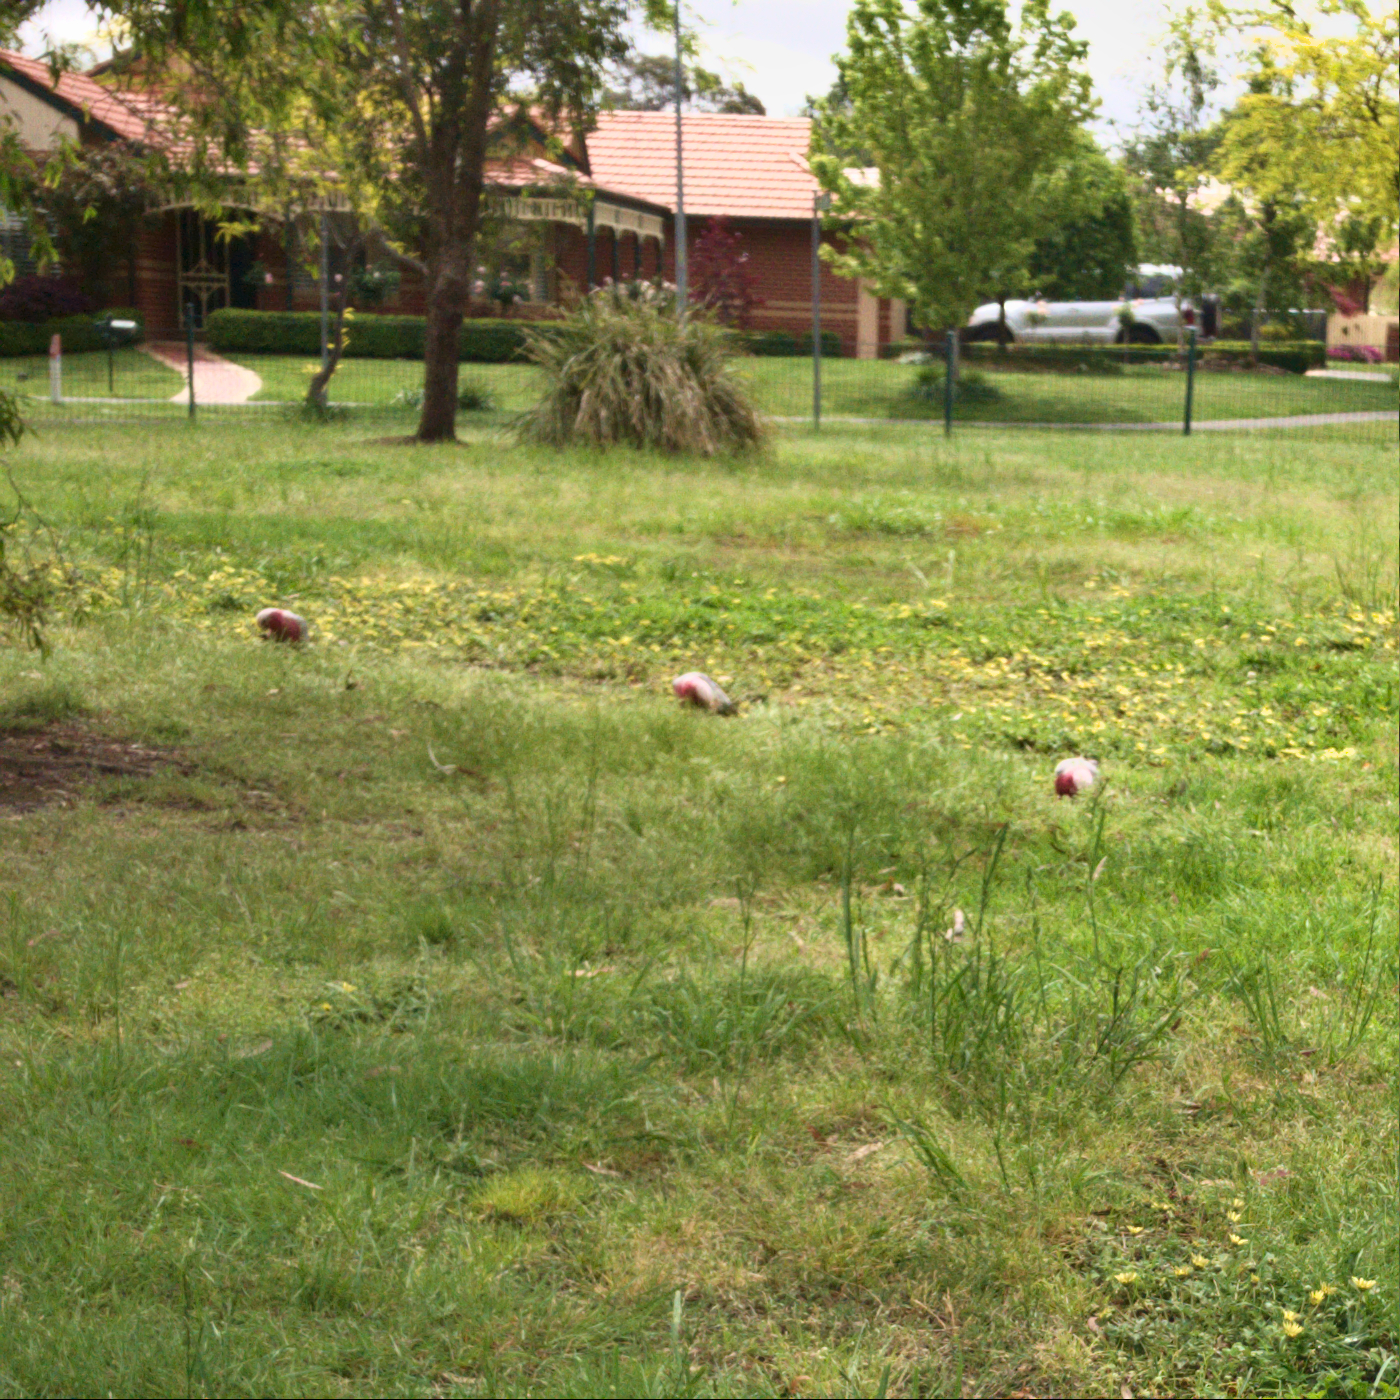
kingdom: Animalia
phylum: Chordata
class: Aves
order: Psittaciformes
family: Psittacidae
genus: Eolophus
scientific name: Eolophus roseicapilla
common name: Galah
